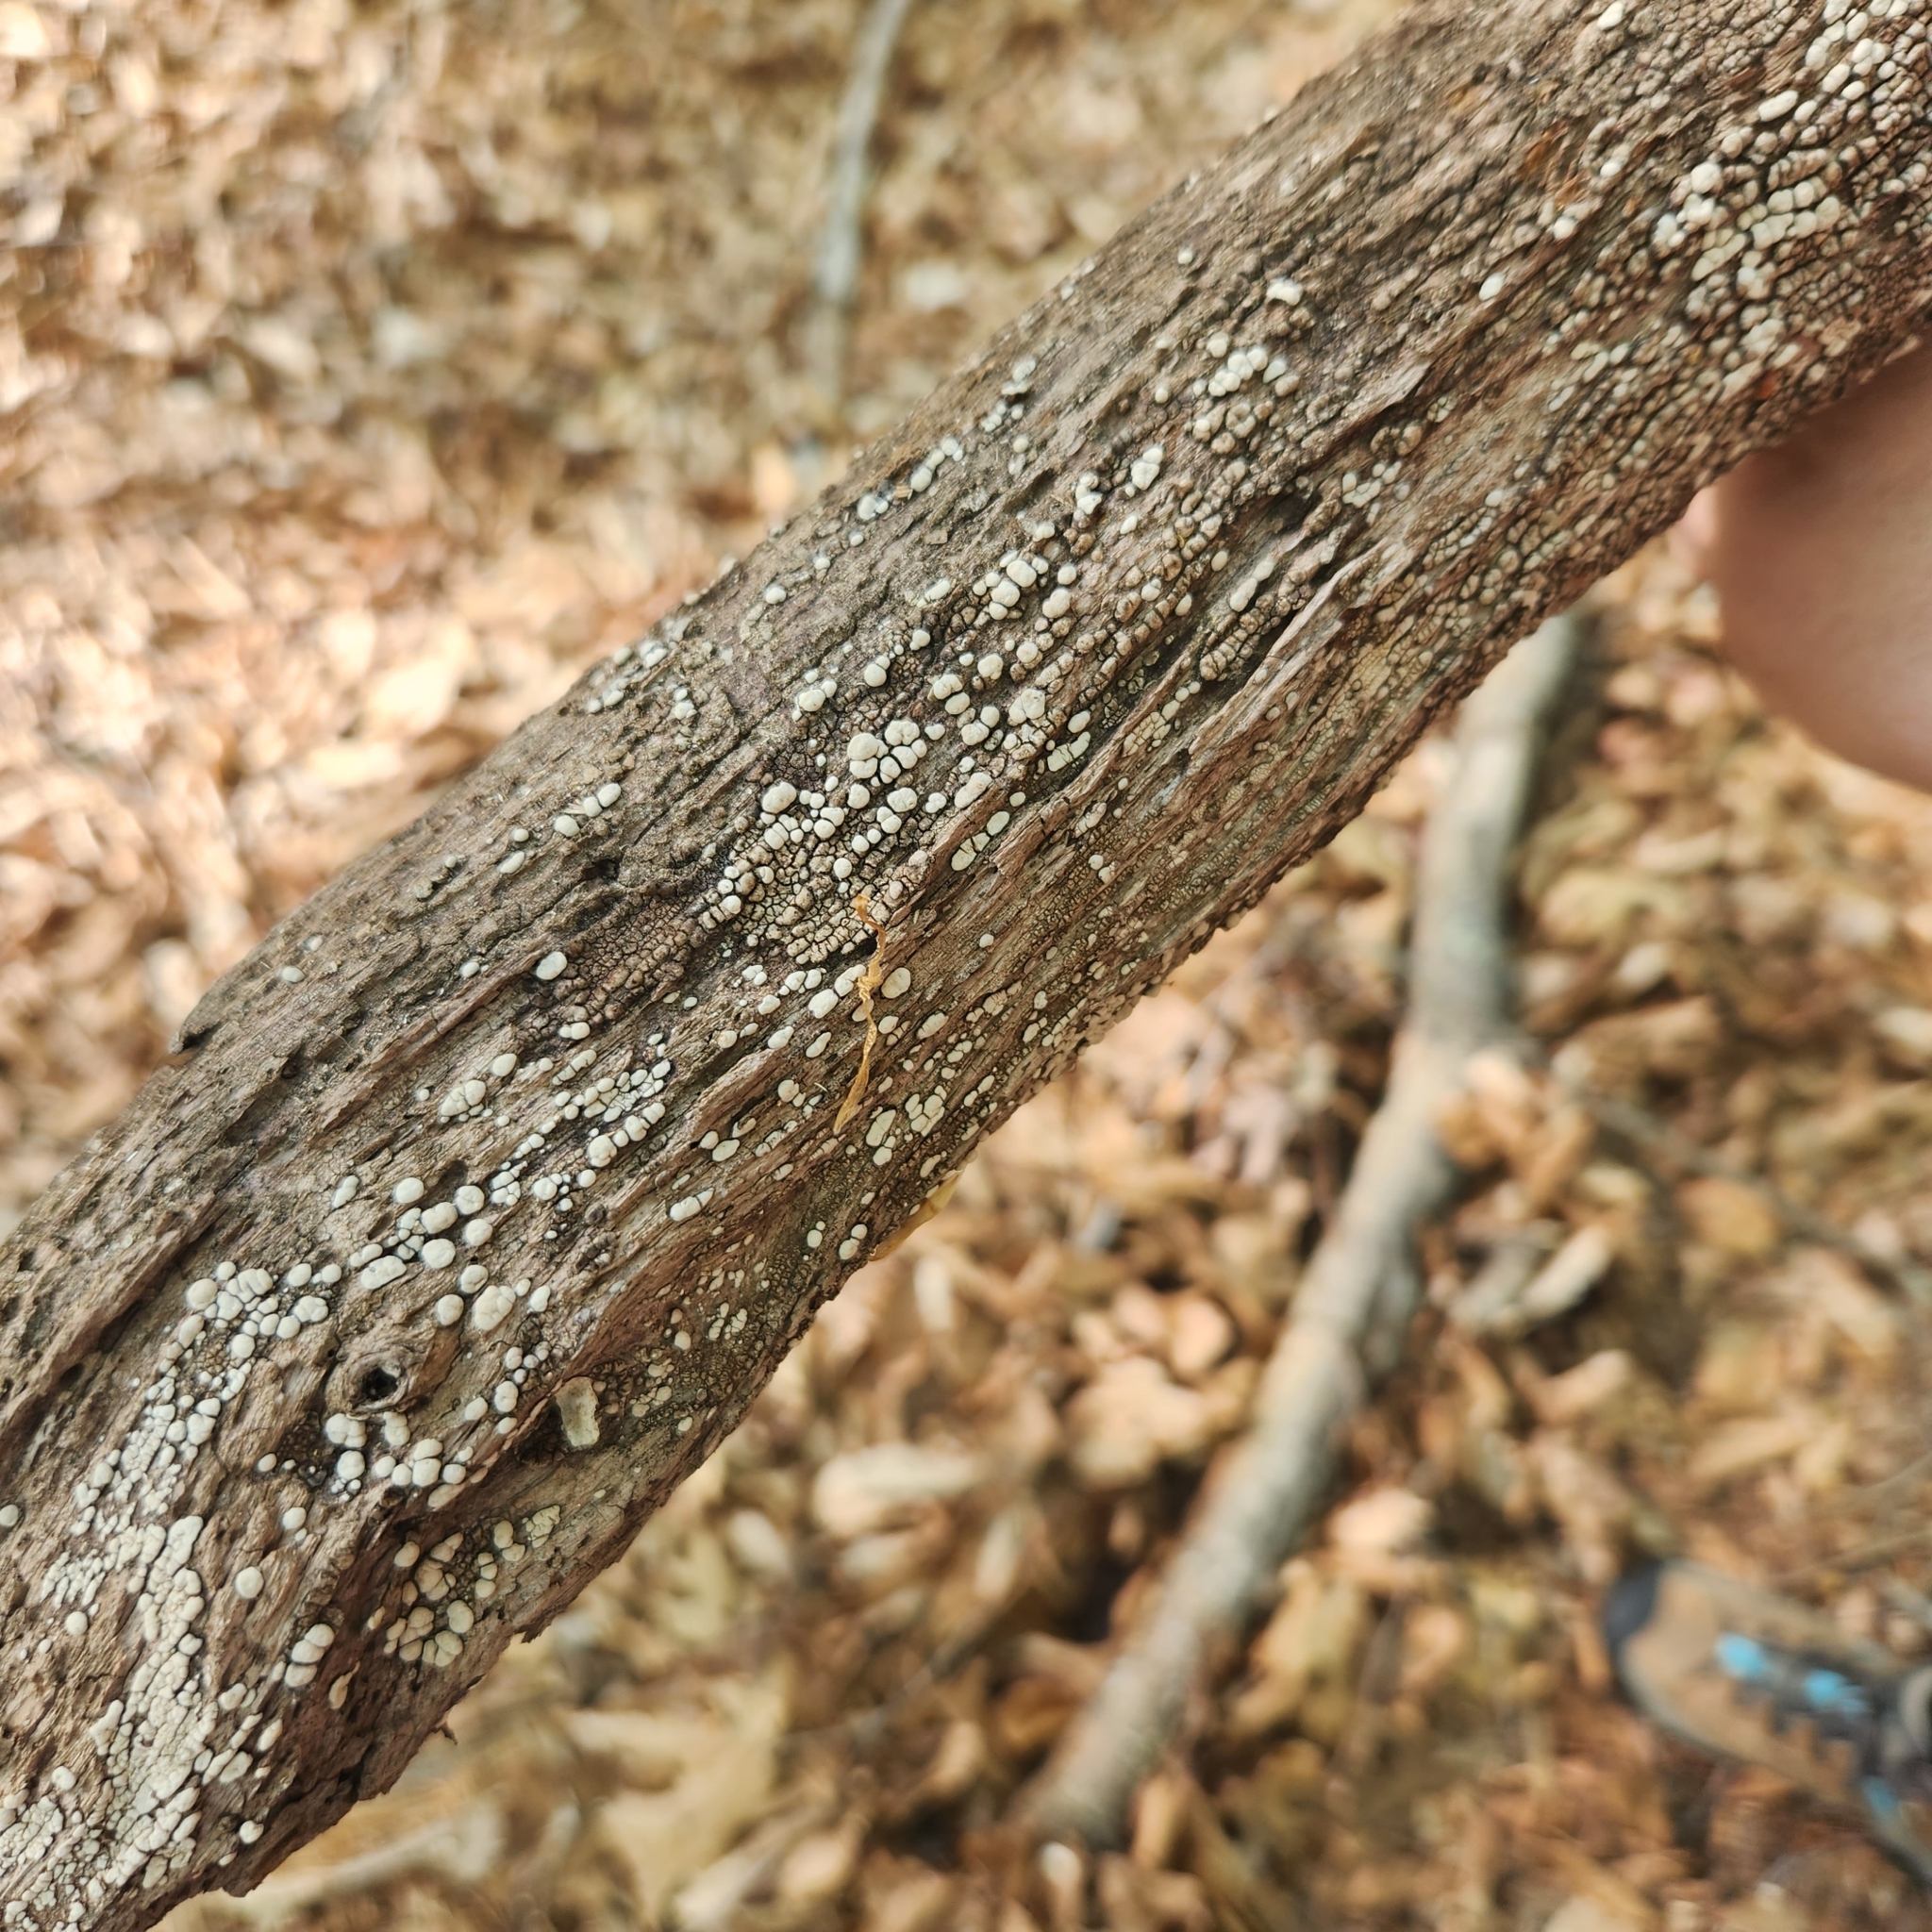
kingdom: Fungi
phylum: Basidiomycota
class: Agaricomycetes
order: Russulales
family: Stereaceae
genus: Xylobolus
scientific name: Xylobolus frustulatus
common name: Ceramic parchment
